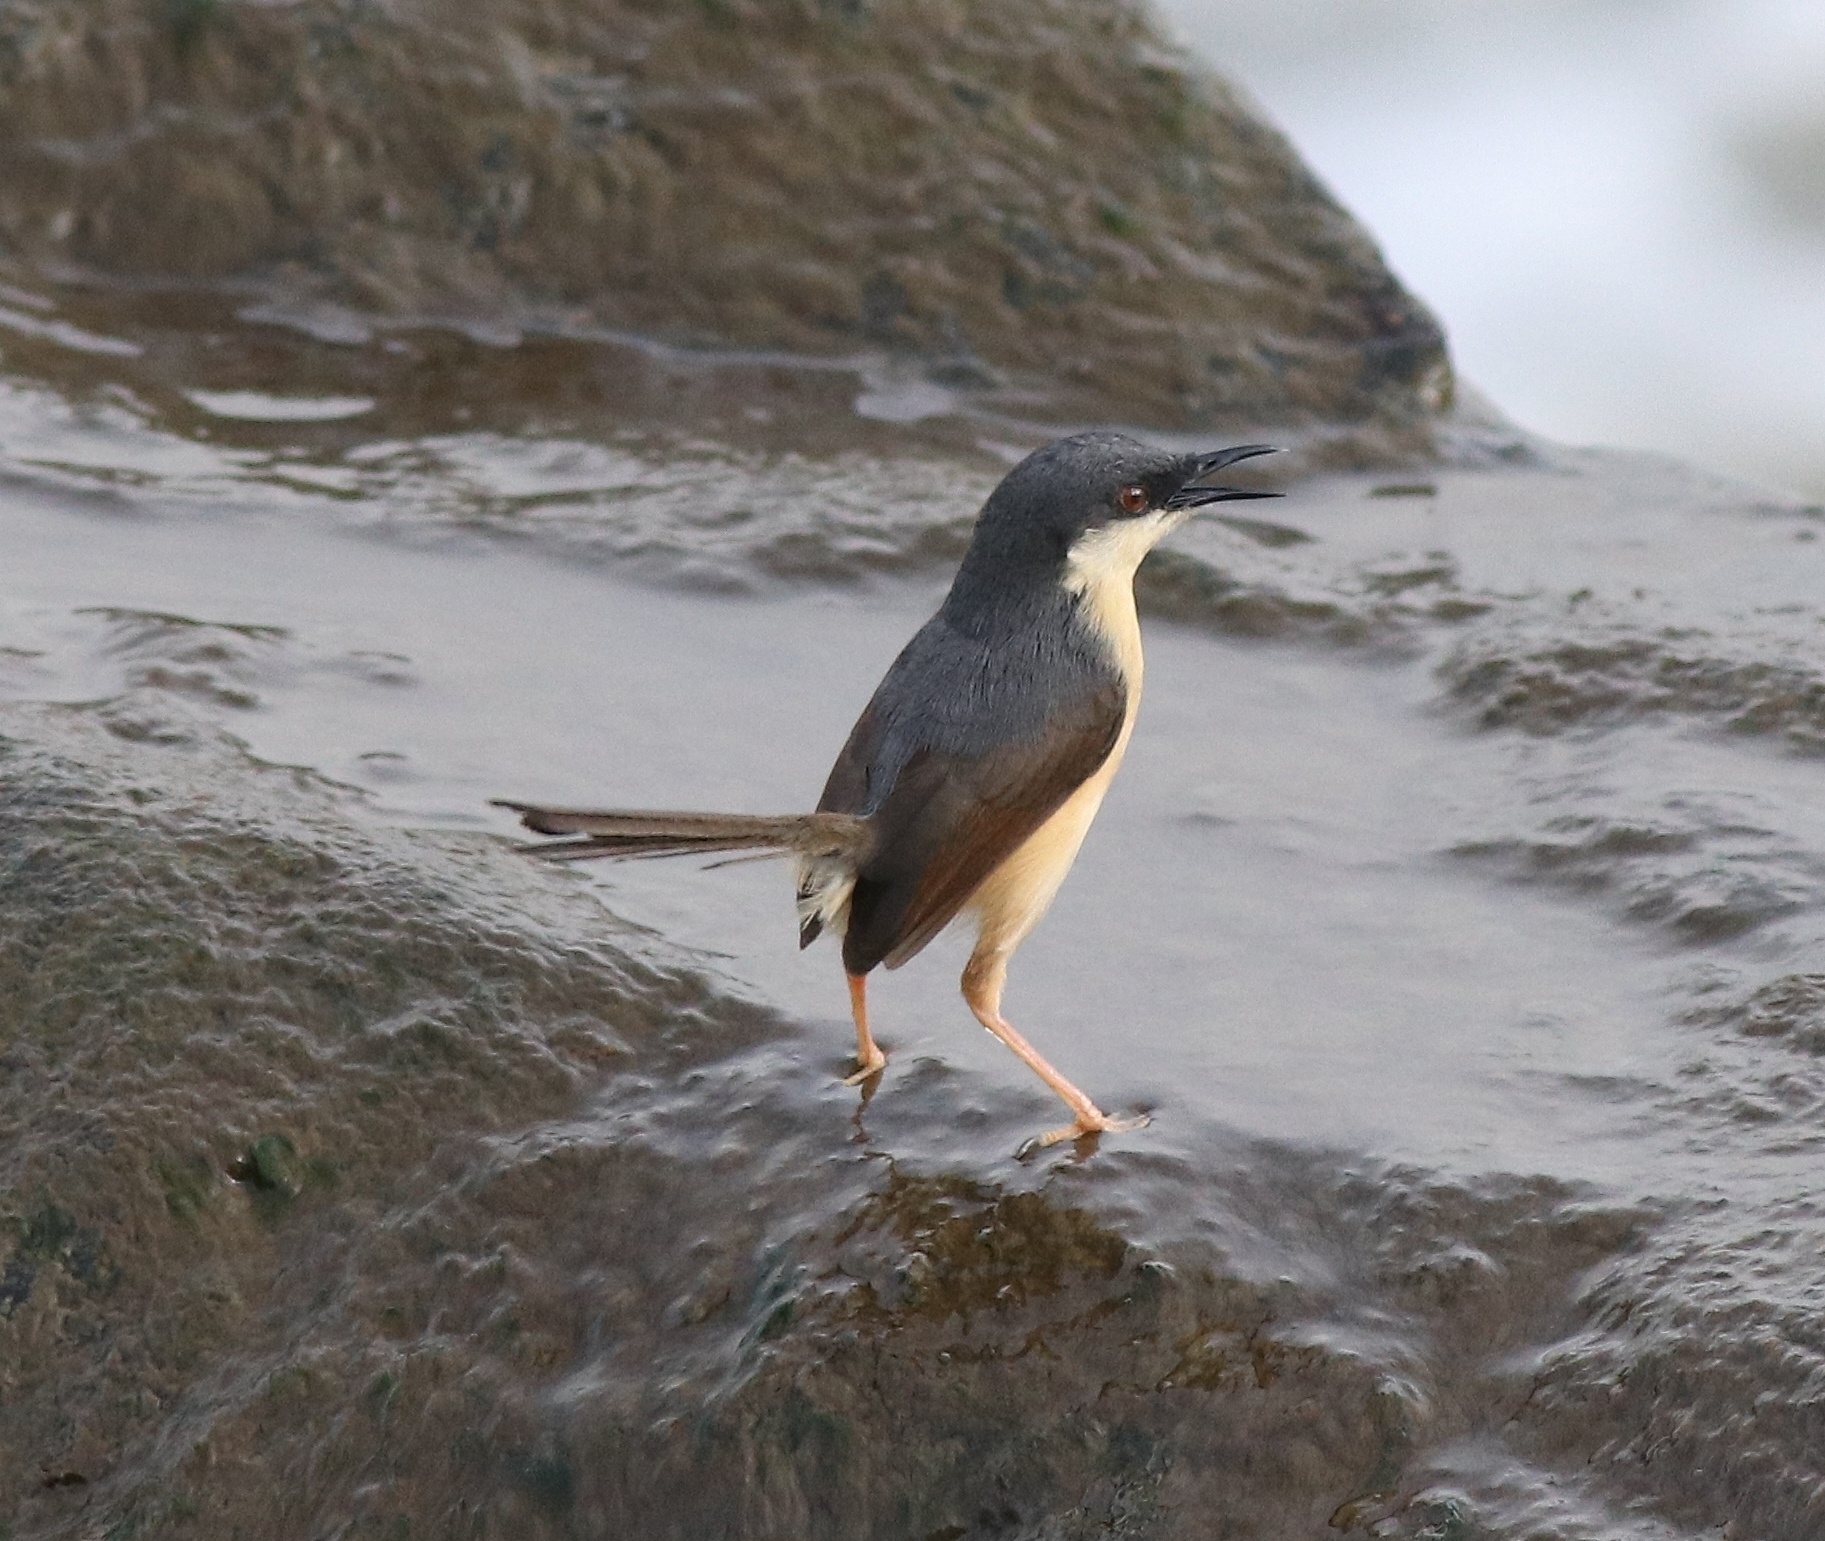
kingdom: Animalia
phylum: Chordata
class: Aves
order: Passeriformes
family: Cisticolidae
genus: Prinia
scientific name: Prinia socialis
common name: Ashy prinia
